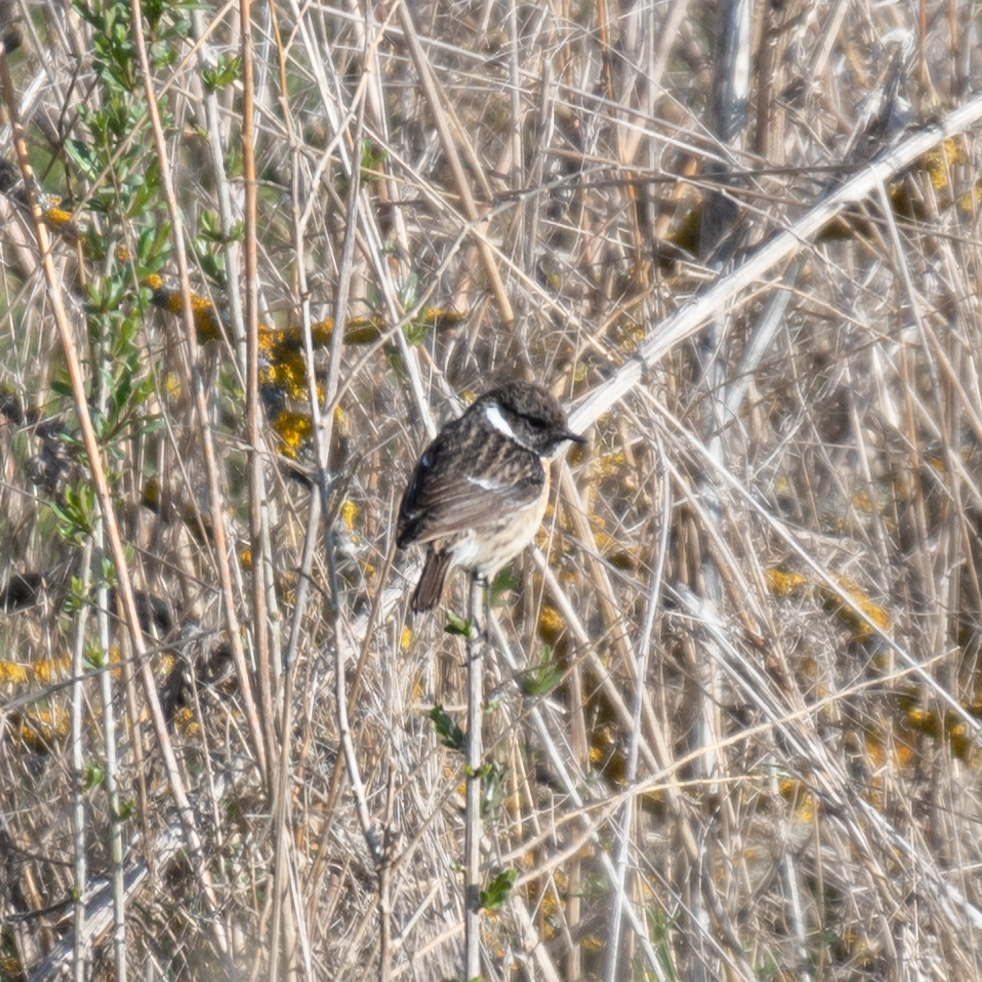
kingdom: Animalia
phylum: Chordata
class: Aves
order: Passeriformes
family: Muscicapidae
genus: Saxicola
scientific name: Saxicola rubicola
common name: European stonechat
